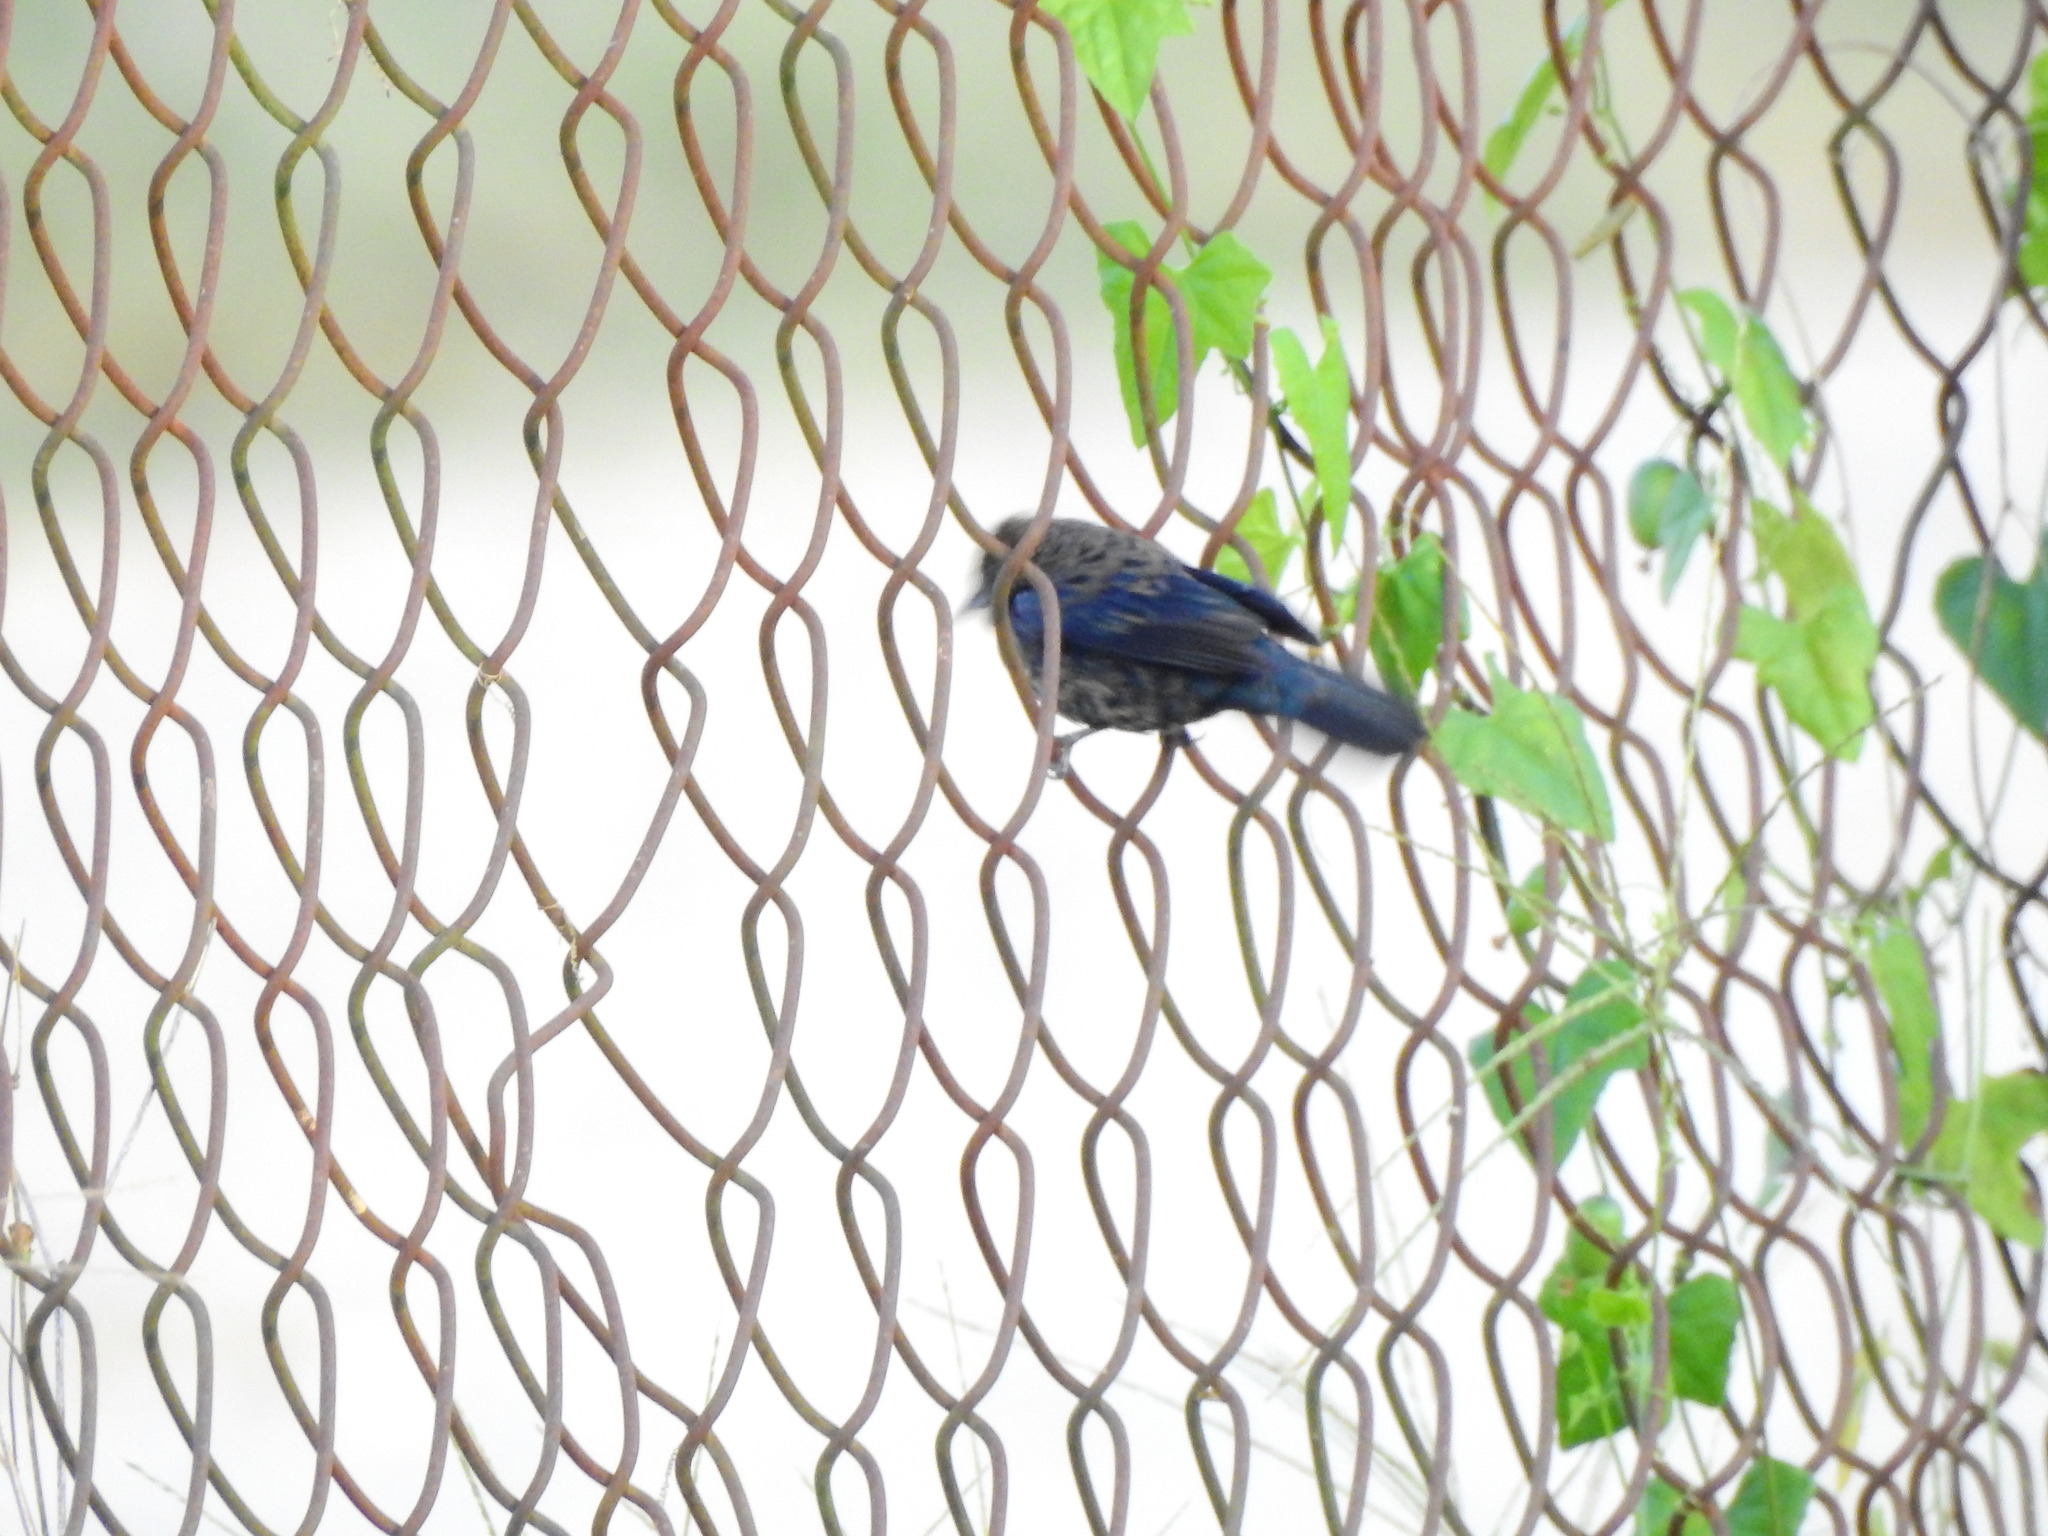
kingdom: Animalia
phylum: Chordata
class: Aves
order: Passeriformes
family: Cardinalidae
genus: Passerina
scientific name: Passerina cyanea
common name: Indigo bunting
